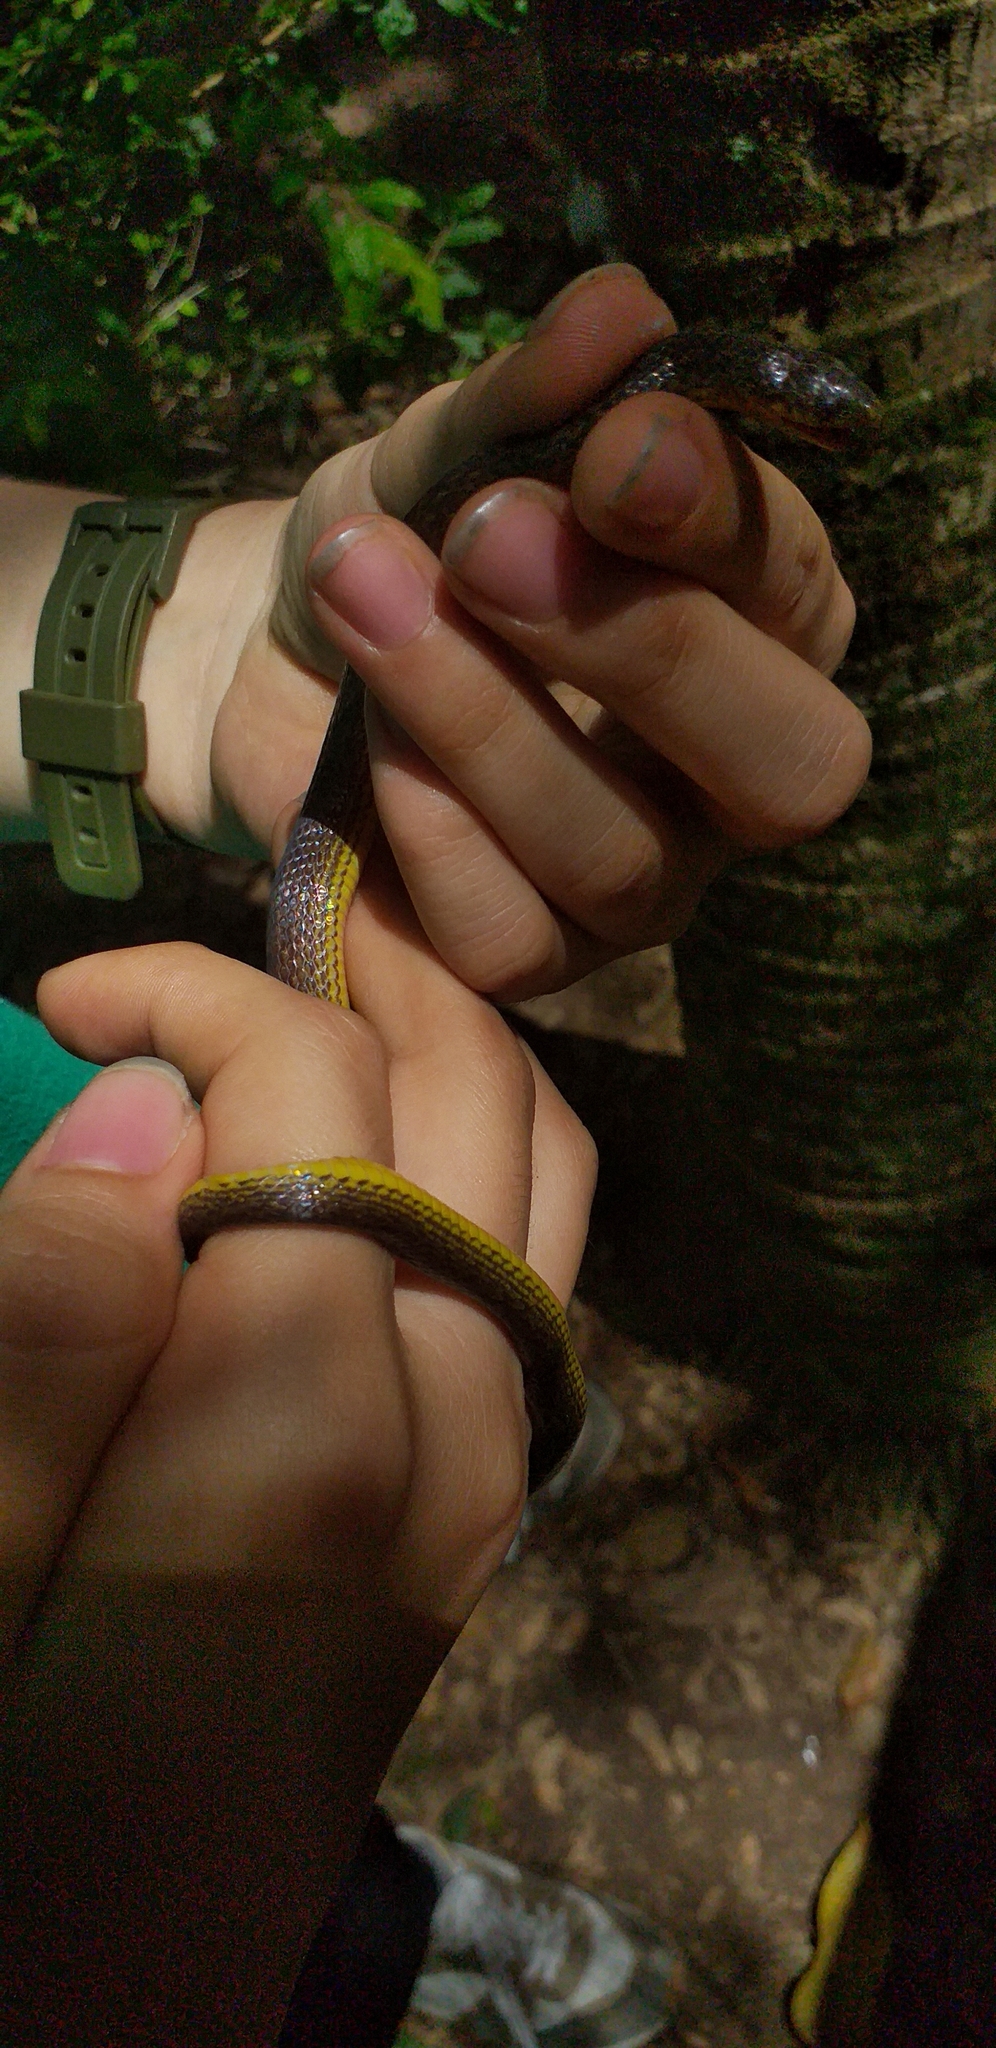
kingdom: Animalia
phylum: Chordata
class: Squamata
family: Colubridae
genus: Atractus
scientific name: Atractus fuliginosus
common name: Hallowell's ground snake
